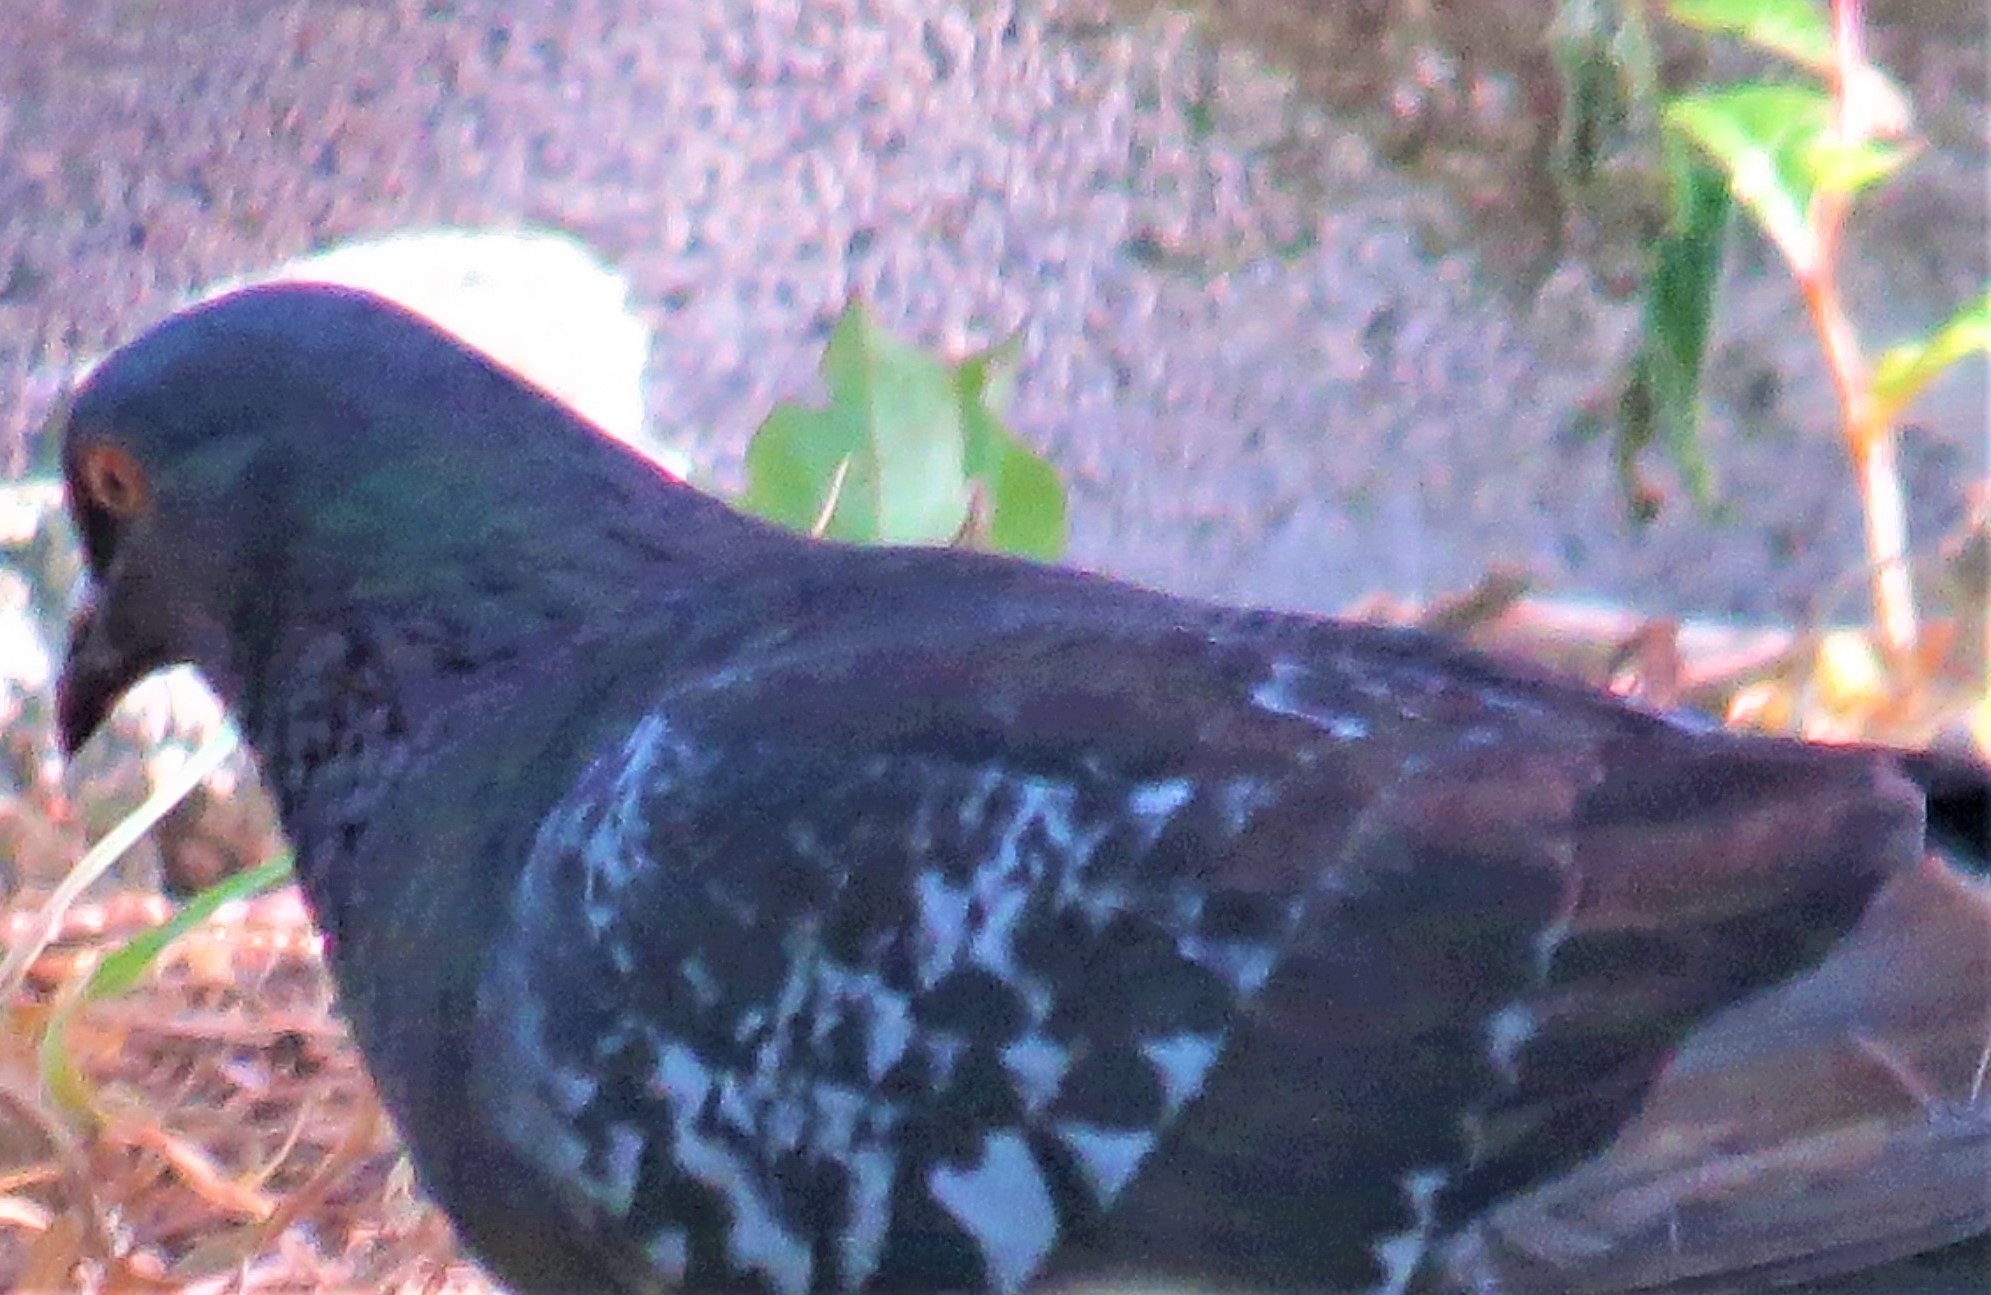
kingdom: Animalia
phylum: Chordata
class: Aves
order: Columbiformes
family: Columbidae
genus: Columba
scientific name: Columba livia
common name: Rock pigeon
